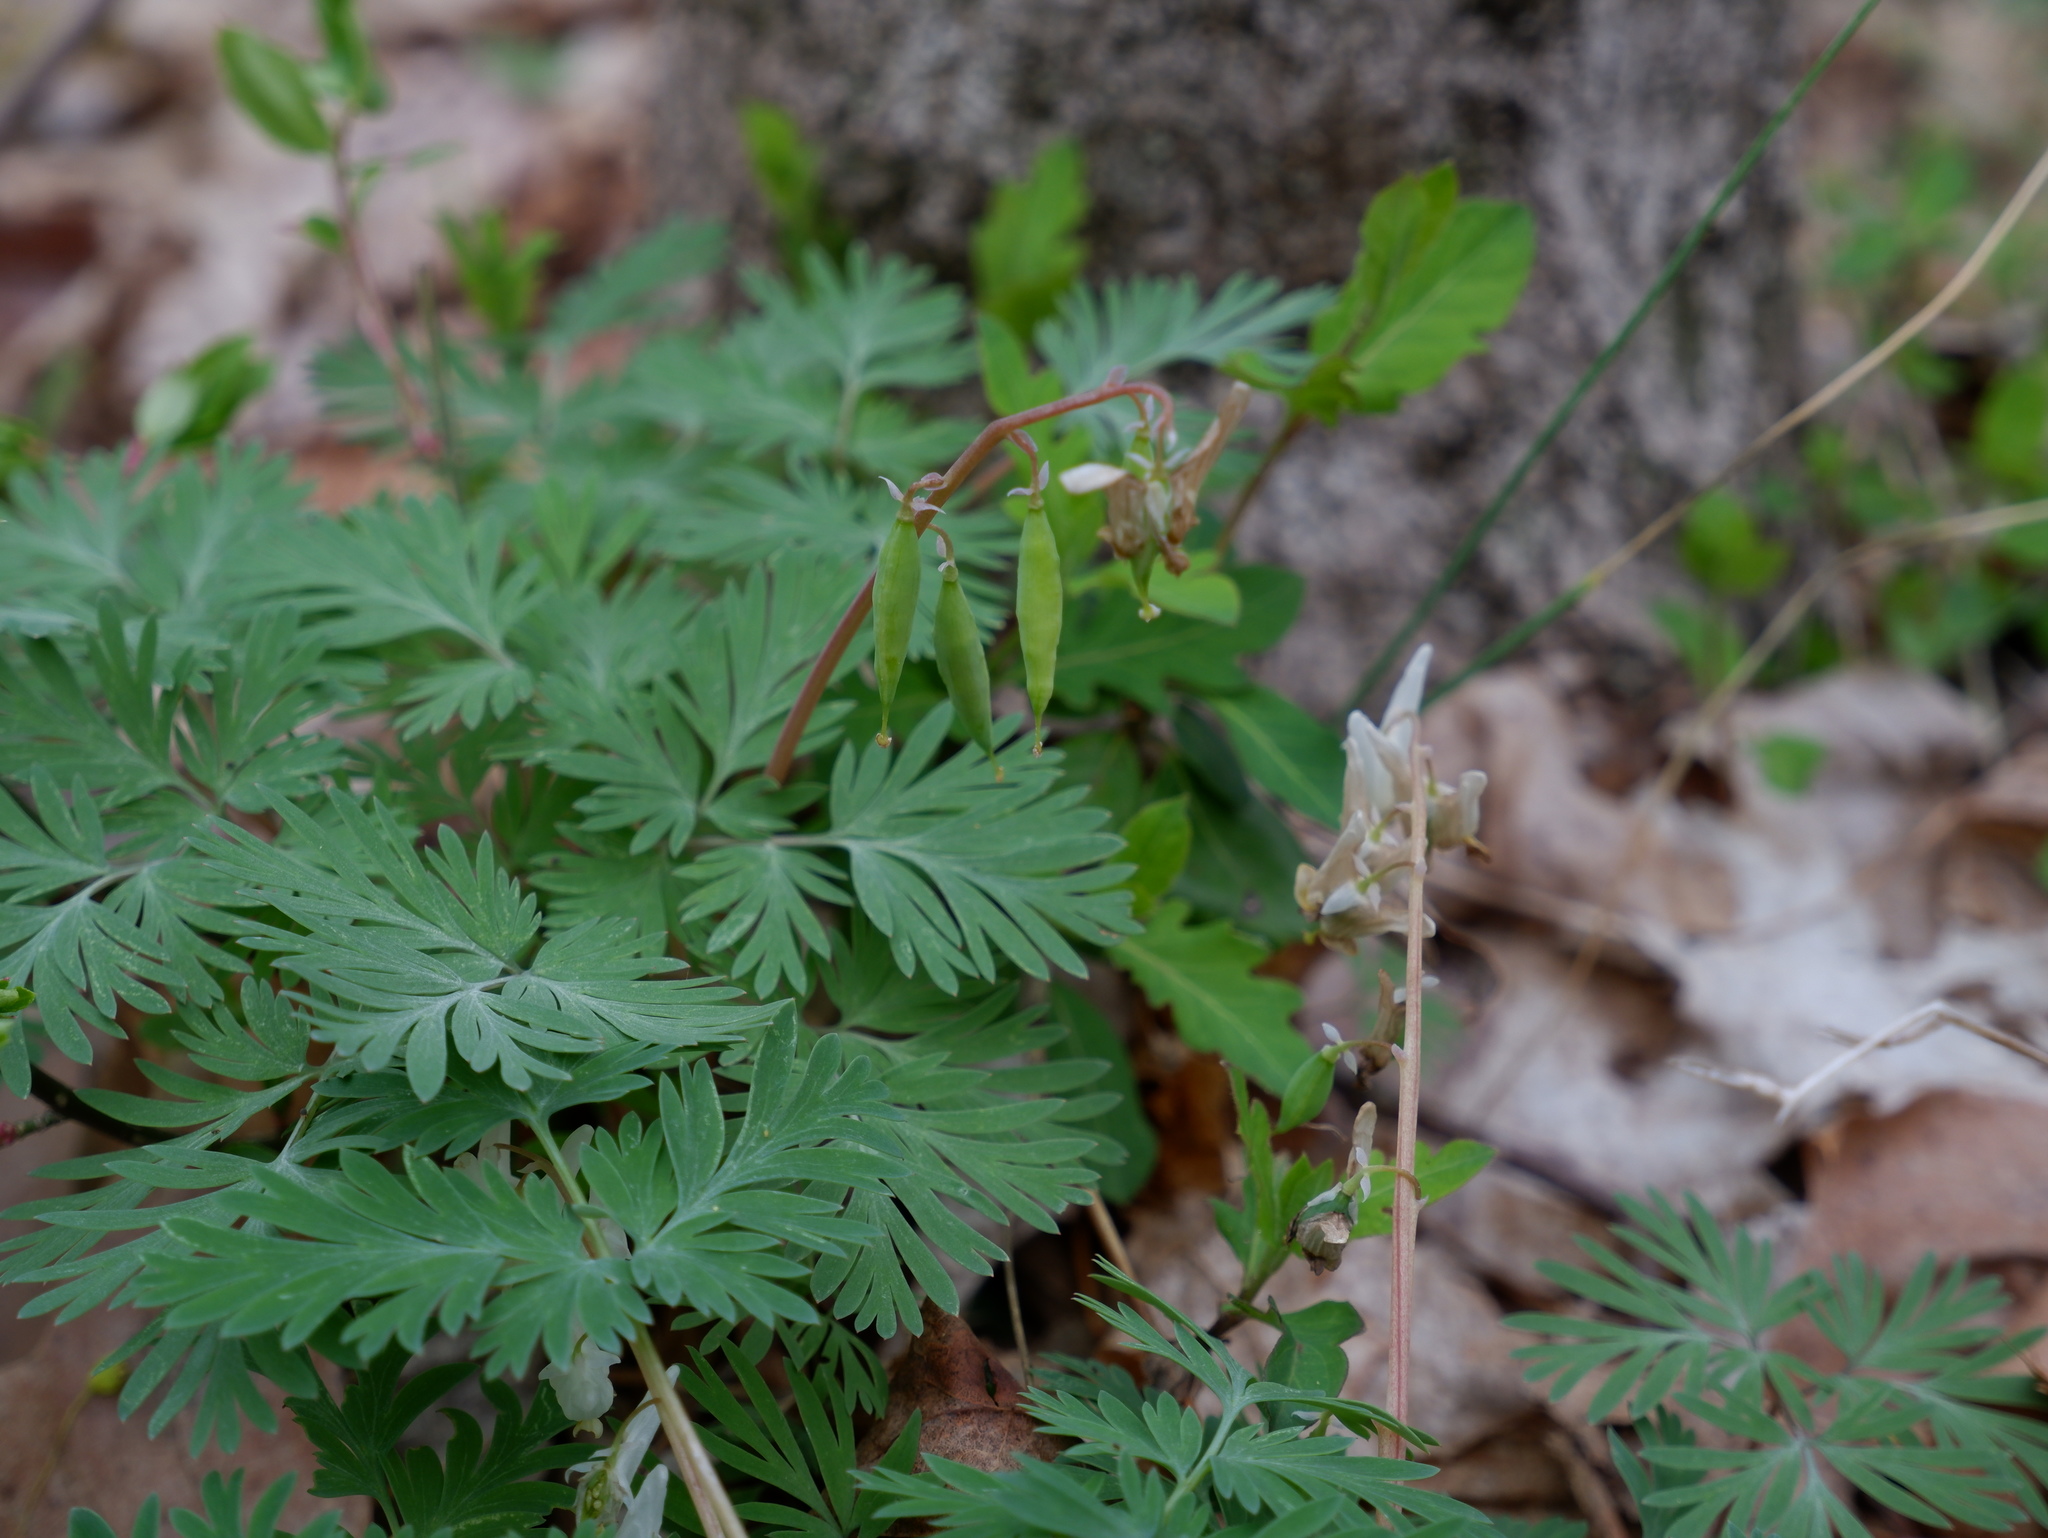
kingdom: Plantae
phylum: Tracheophyta
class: Magnoliopsida
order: Ranunculales
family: Papaveraceae
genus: Dicentra
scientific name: Dicentra cucullaria
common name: Dutchman's breeches
